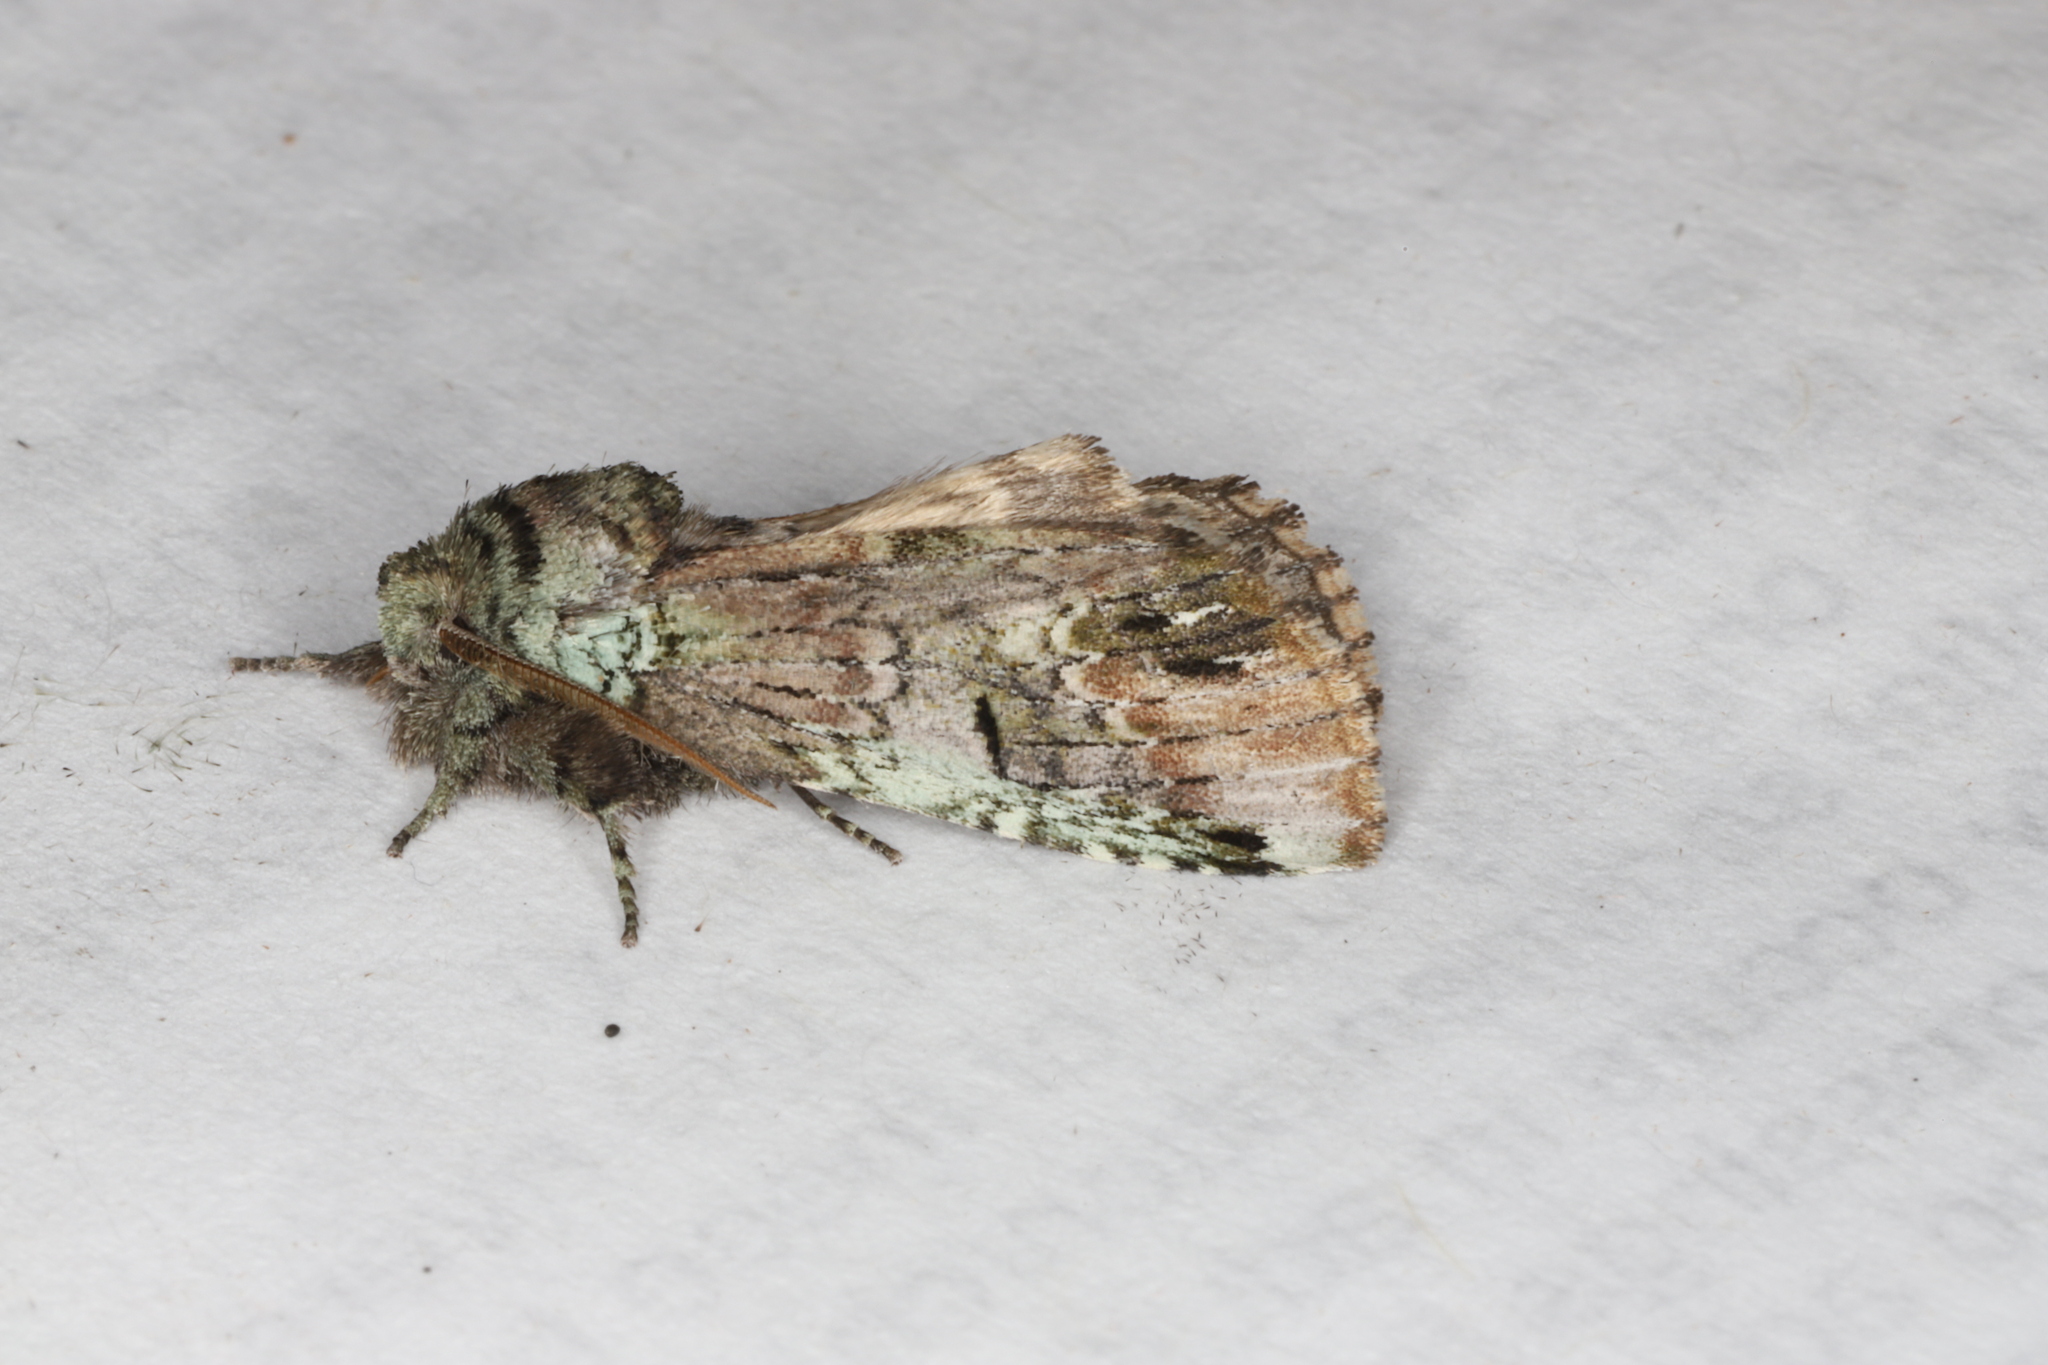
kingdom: Animalia
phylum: Arthropoda
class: Insecta
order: Lepidoptera
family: Notodontidae
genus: Schizura
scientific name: Schizura
